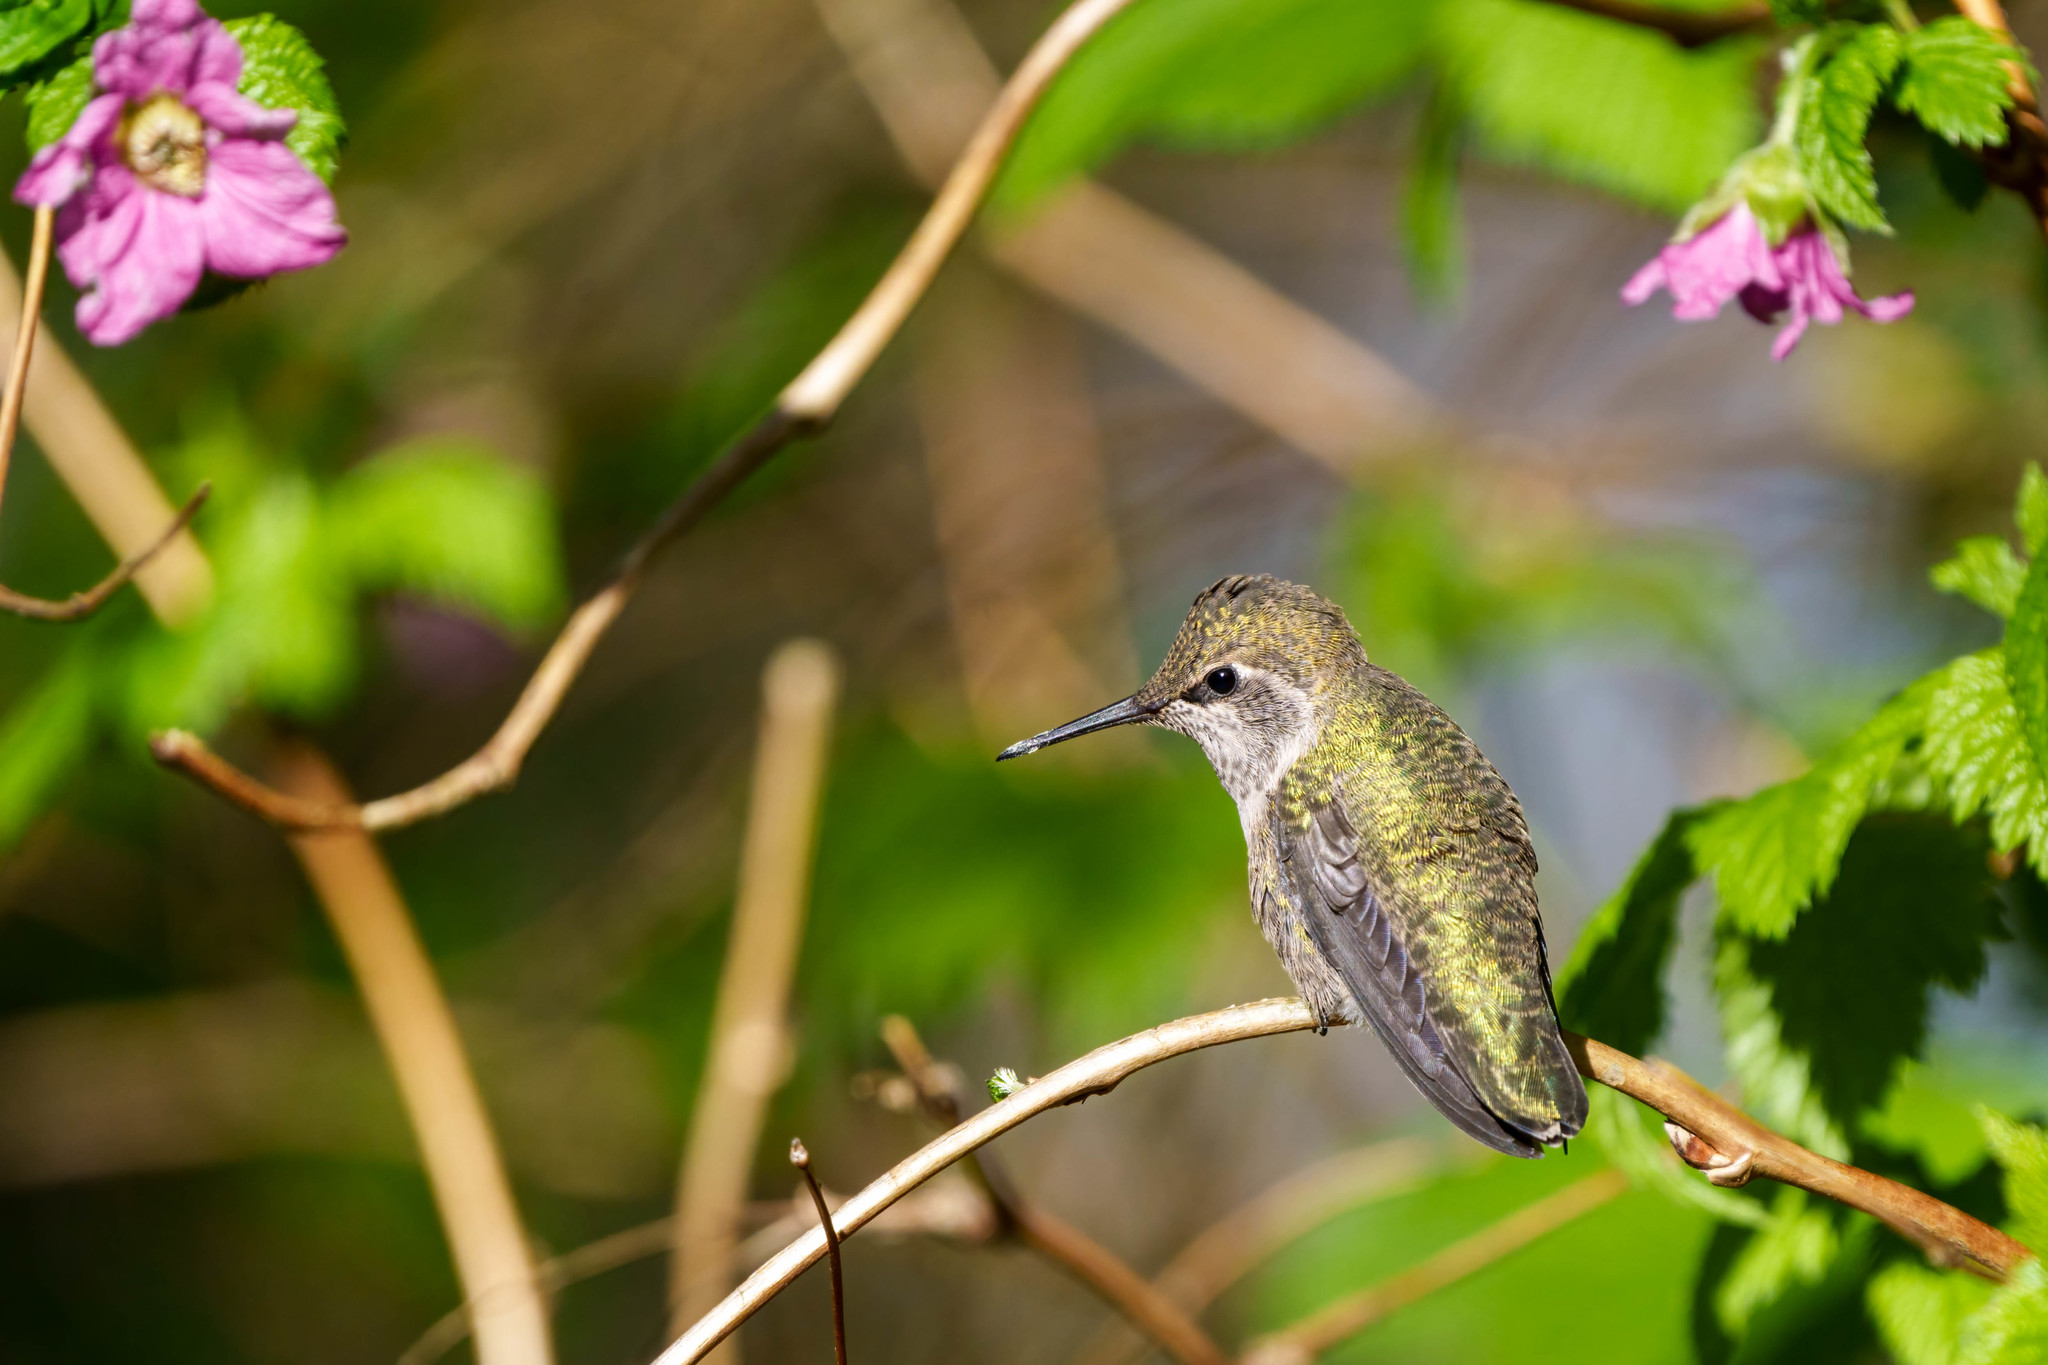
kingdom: Animalia
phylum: Chordata
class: Aves
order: Apodiformes
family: Trochilidae
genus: Calypte
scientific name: Calypte anna
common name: Anna's hummingbird
